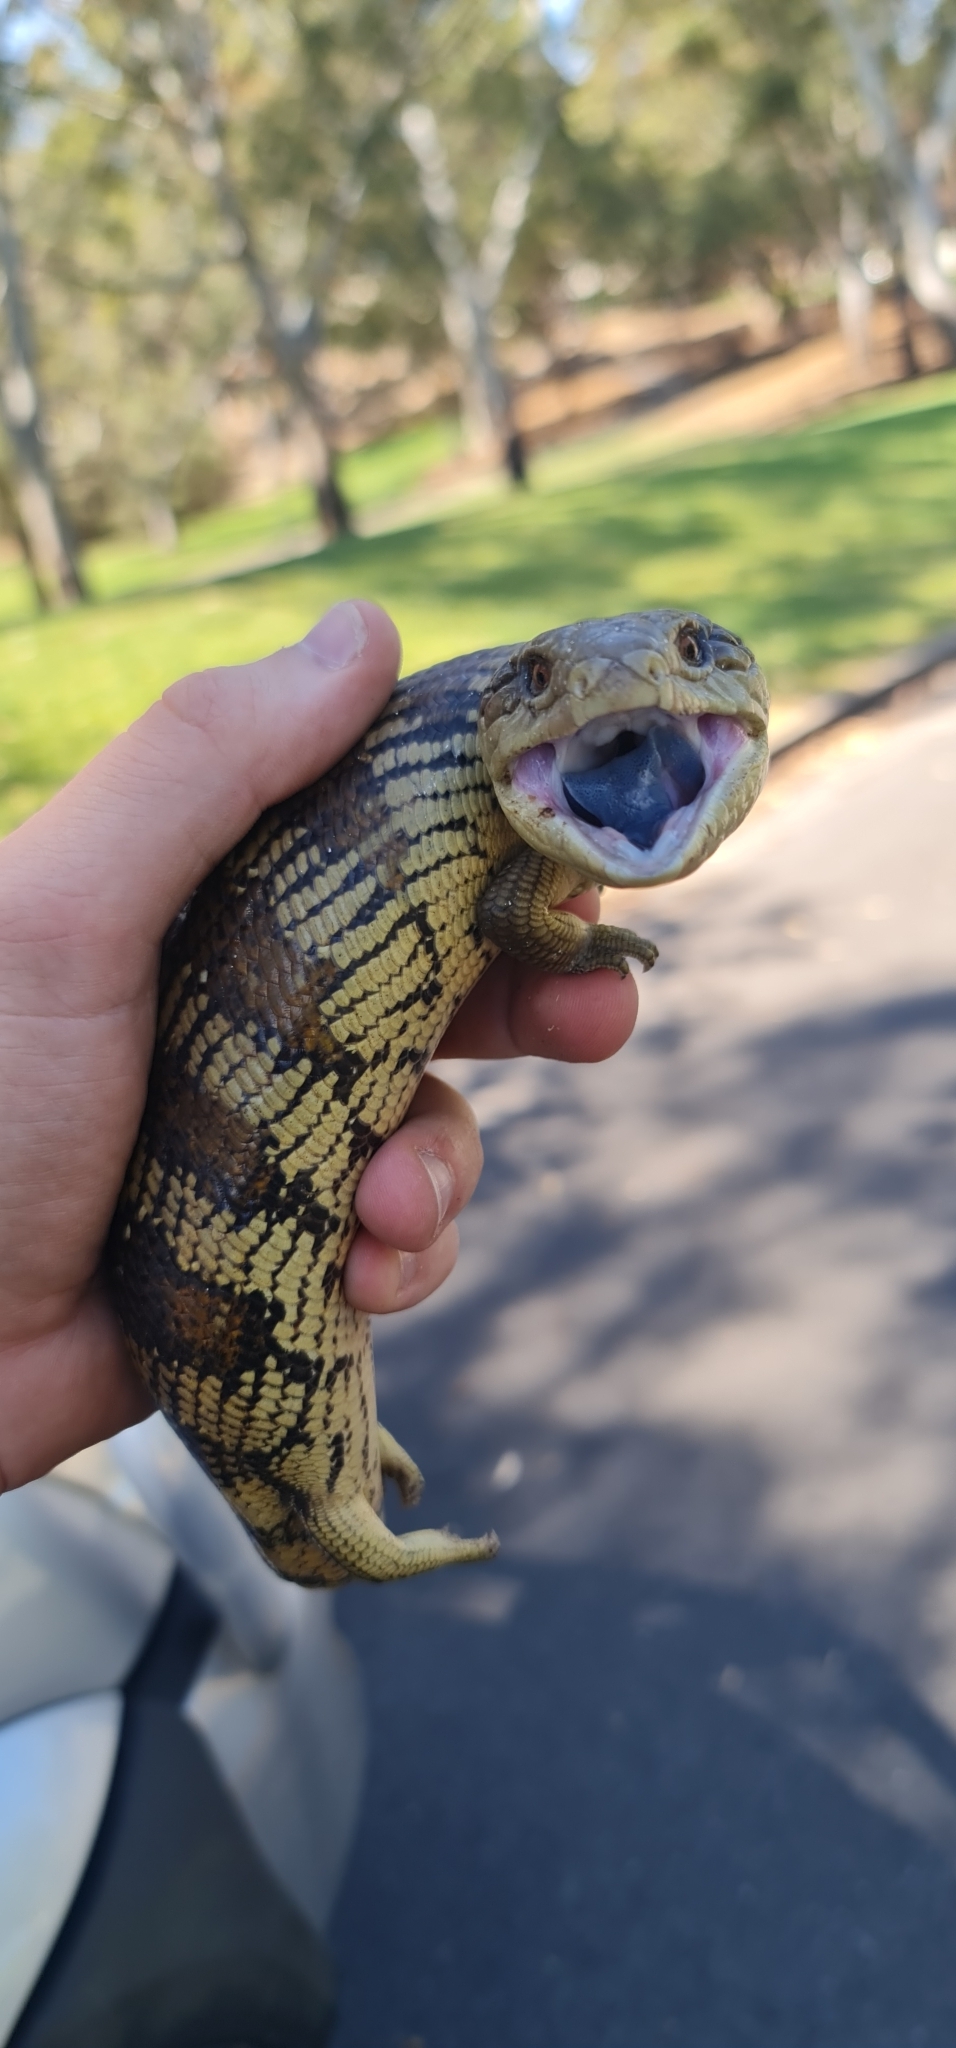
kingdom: Animalia
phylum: Chordata
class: Squamata
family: Scincidae
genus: Tiliqua
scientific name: Tiliqua scincoides
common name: Common bluetongue
